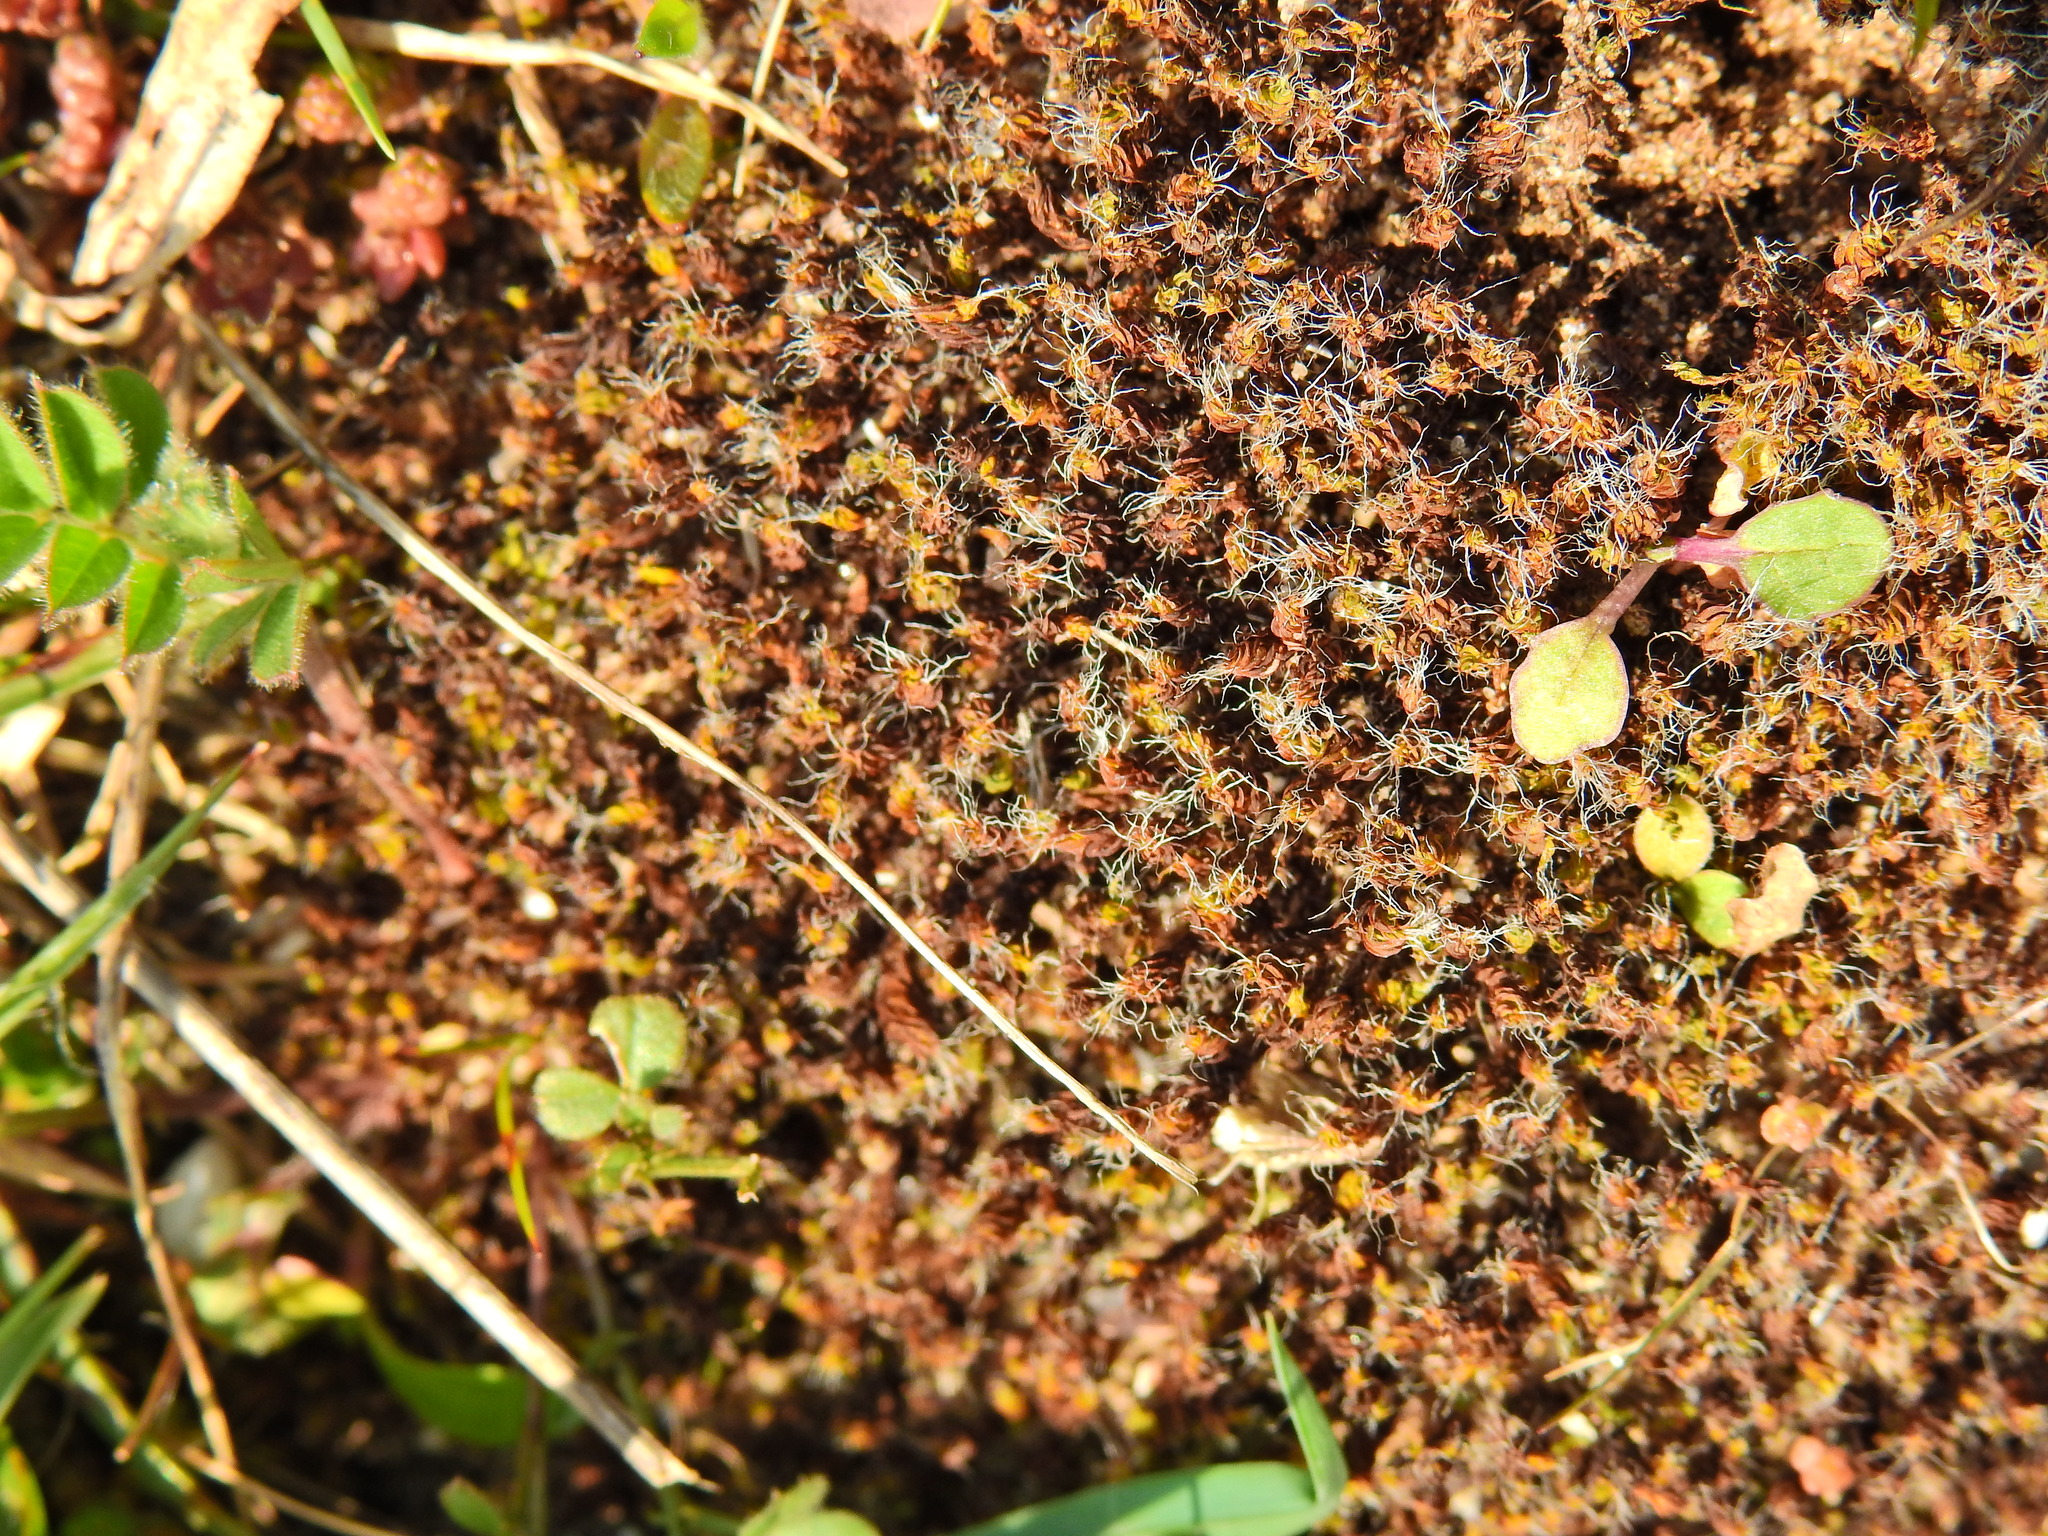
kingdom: Plantae
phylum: Bryophyta
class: Bryopsida
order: Pottiales
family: Pottiaceae
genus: Syntrichia
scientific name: Syntrichia ruralis
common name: Sidewalk screw moss
